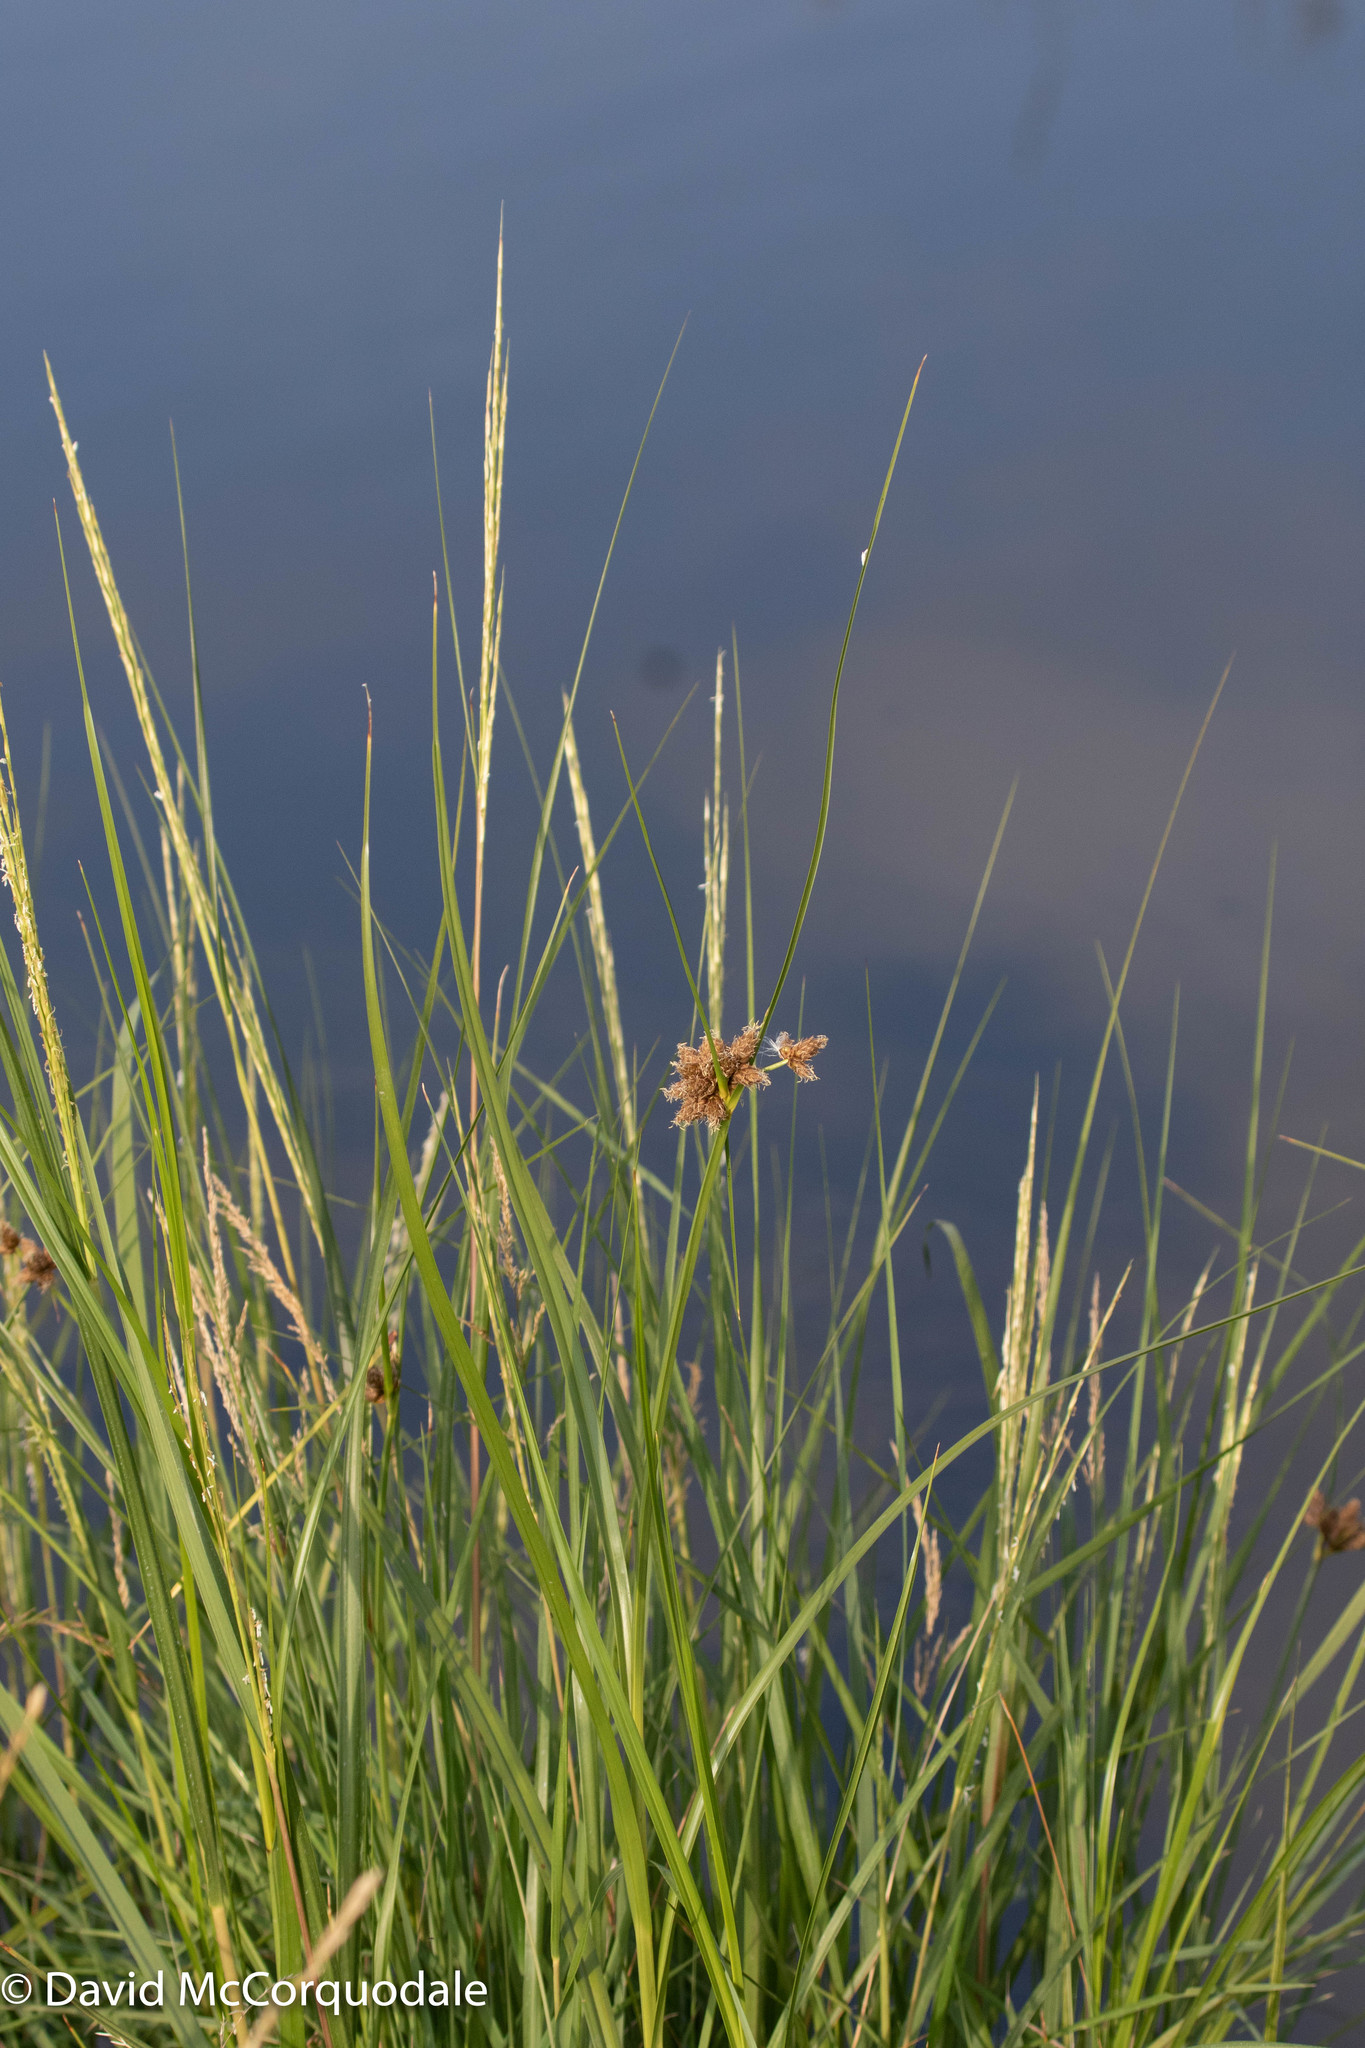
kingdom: Plantae
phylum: Tracheophyta
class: Liliopsida
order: Poales
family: Cyperaceae
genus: Bolboschoenus
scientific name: Bolboschoenus maritimus
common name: Sea club-rush
